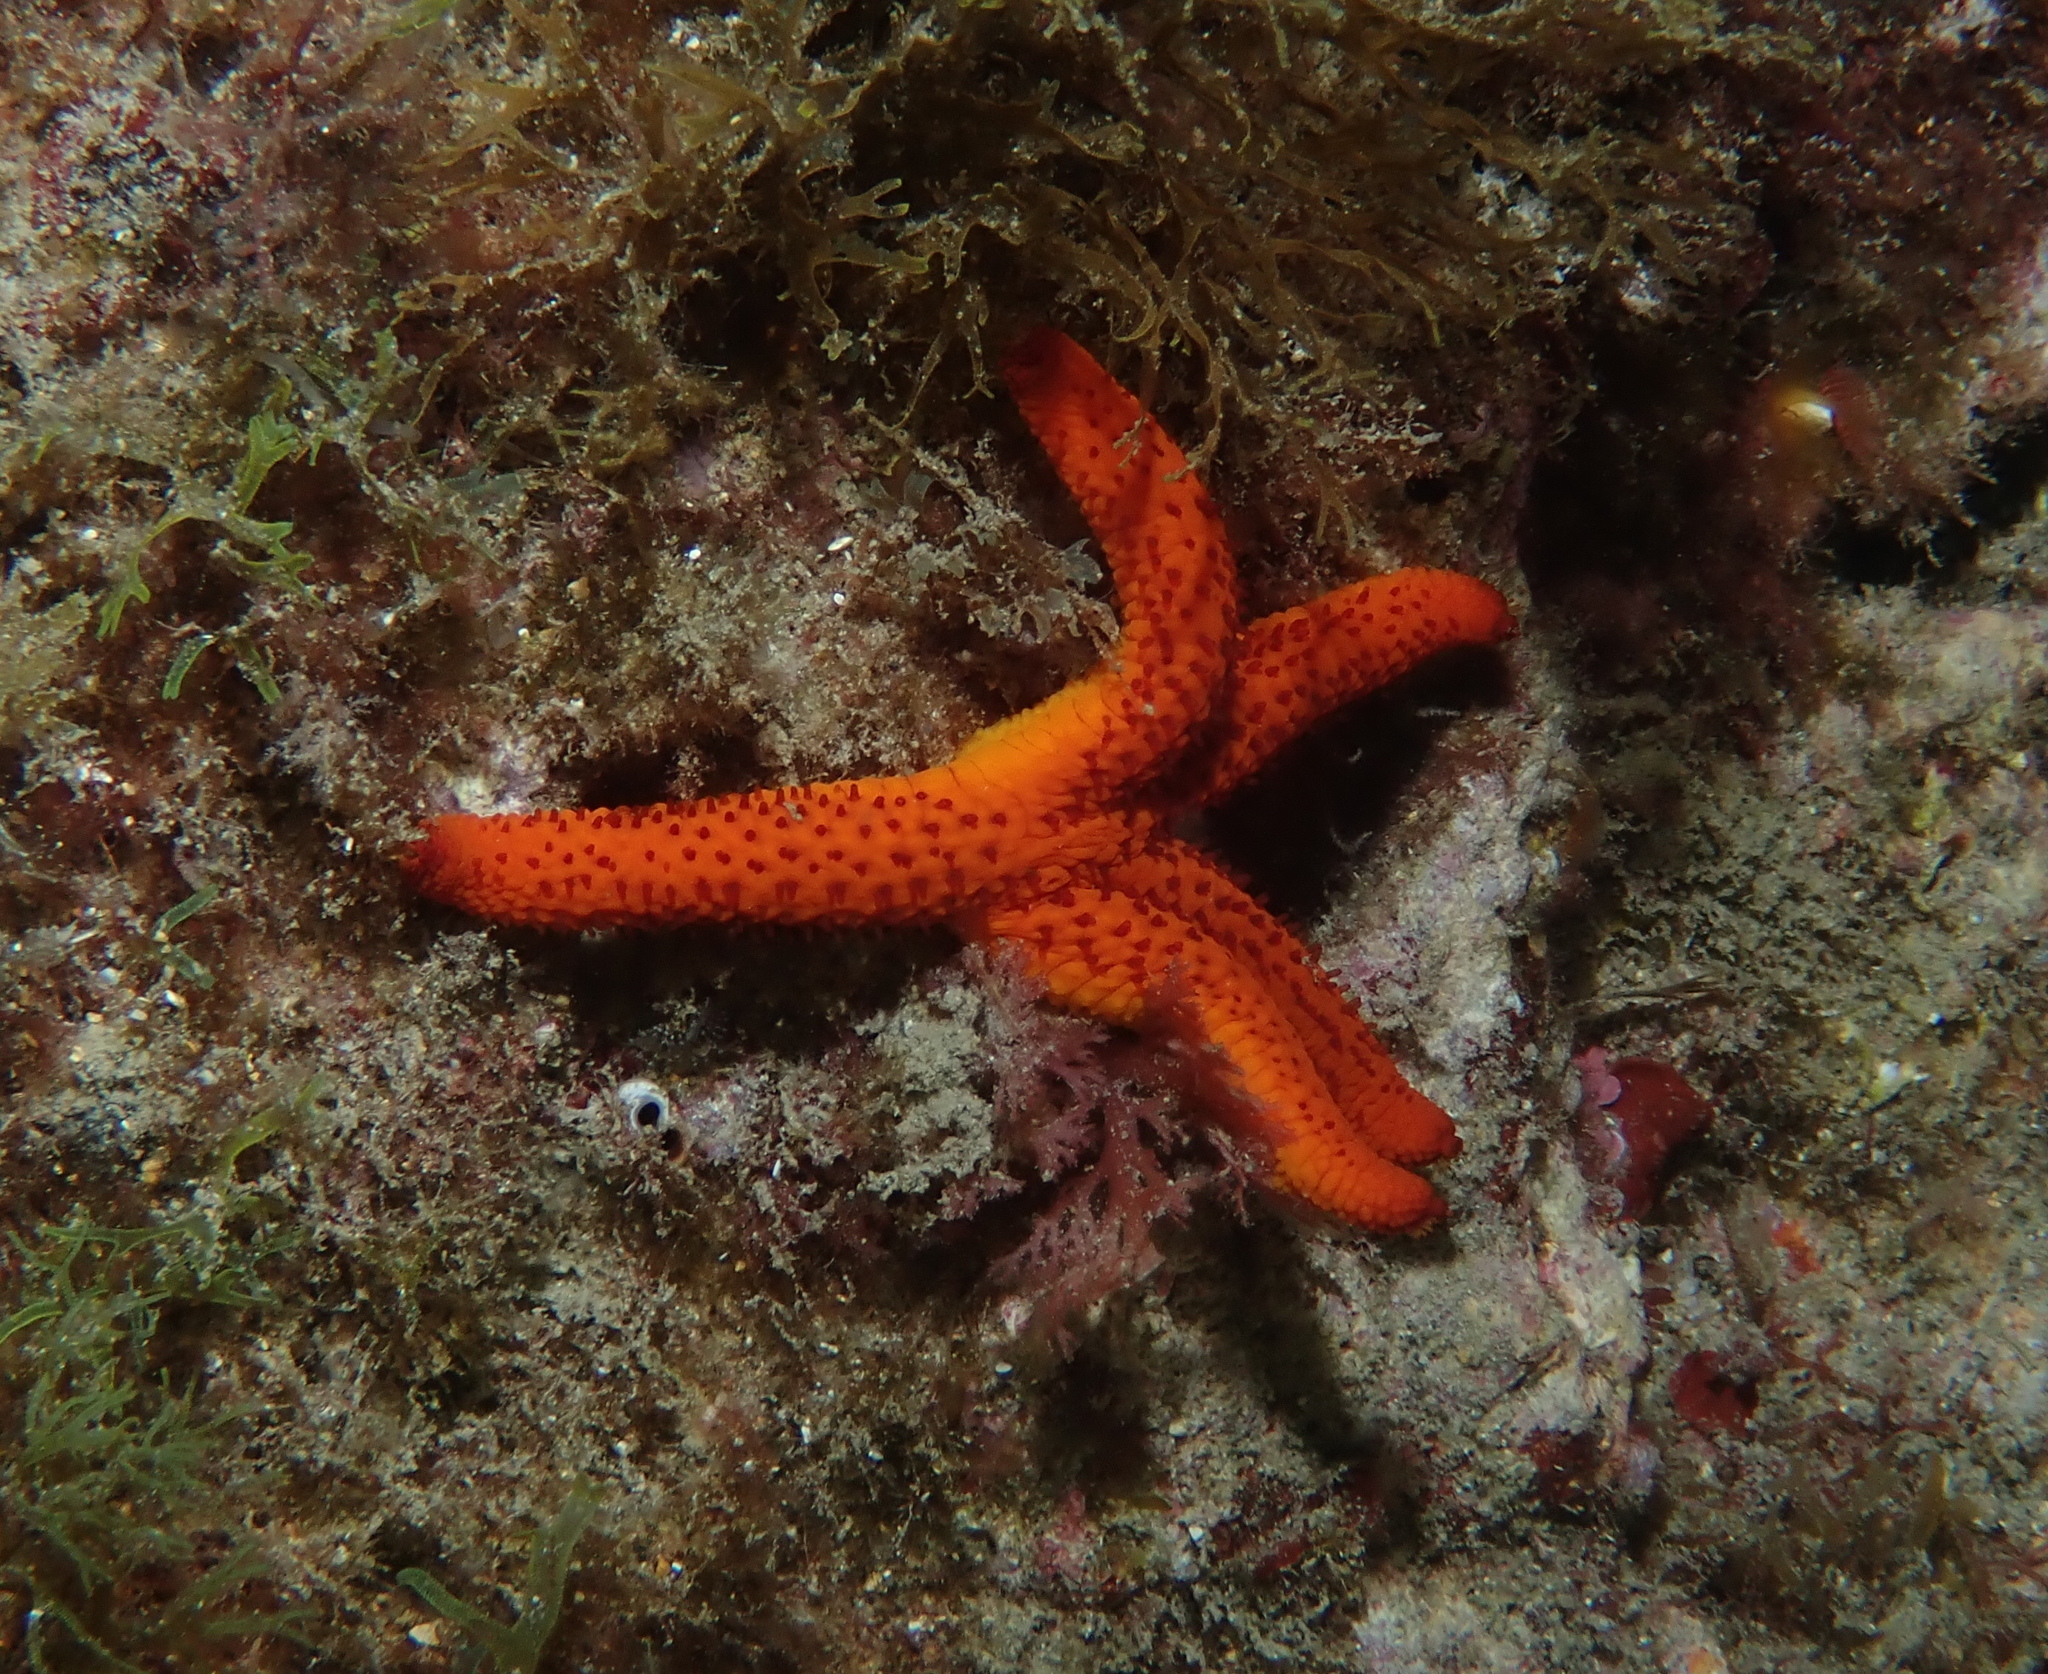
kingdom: Animalia
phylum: Echinodermata
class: Asteroidea
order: Spinulosida
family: Echinasteridae
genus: Echinaster
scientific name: Echinaster sepositus
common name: Red starfish
